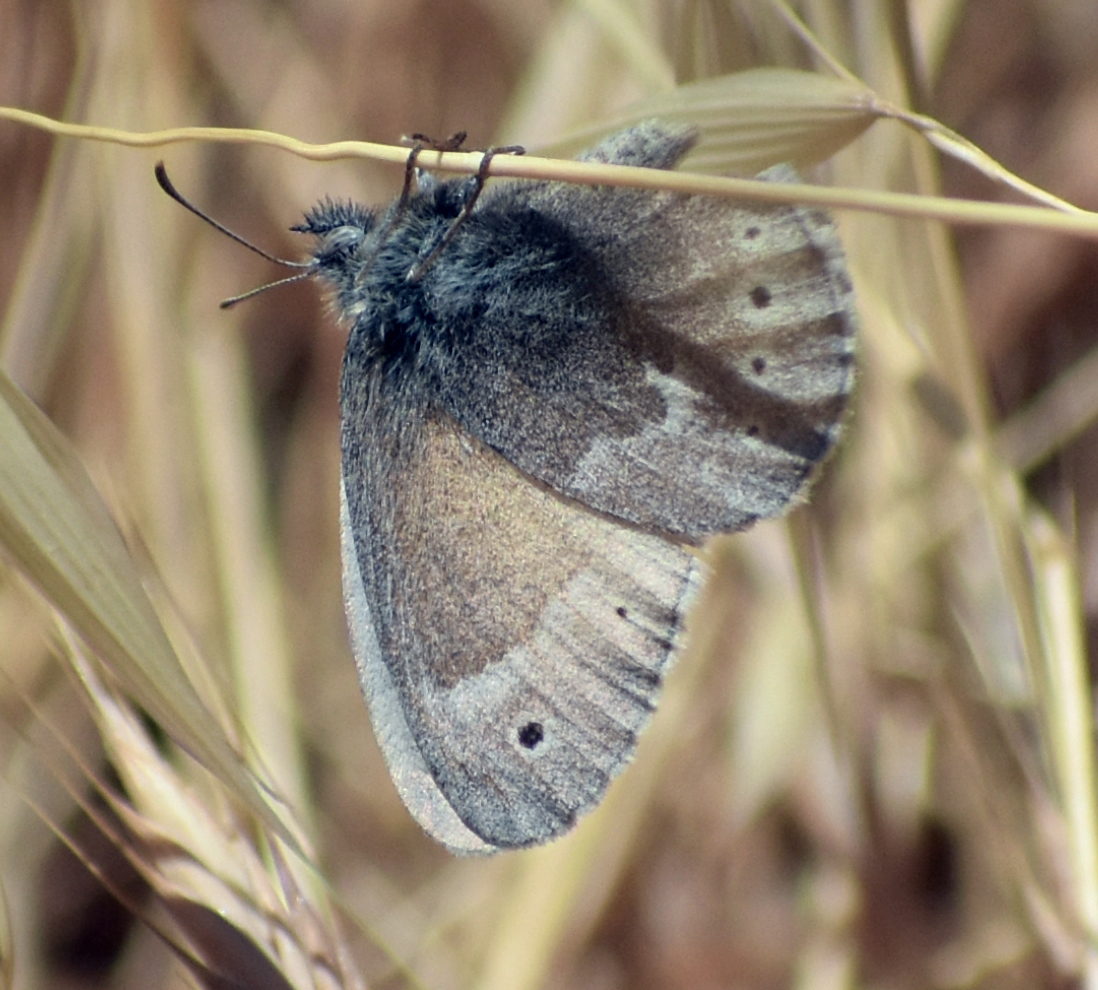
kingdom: Animalia
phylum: Arthropoda
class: Insecta
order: Lepidoptera
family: Nymphalidae
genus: Coenonympha
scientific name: Coenonympha california
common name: Common ringlet
